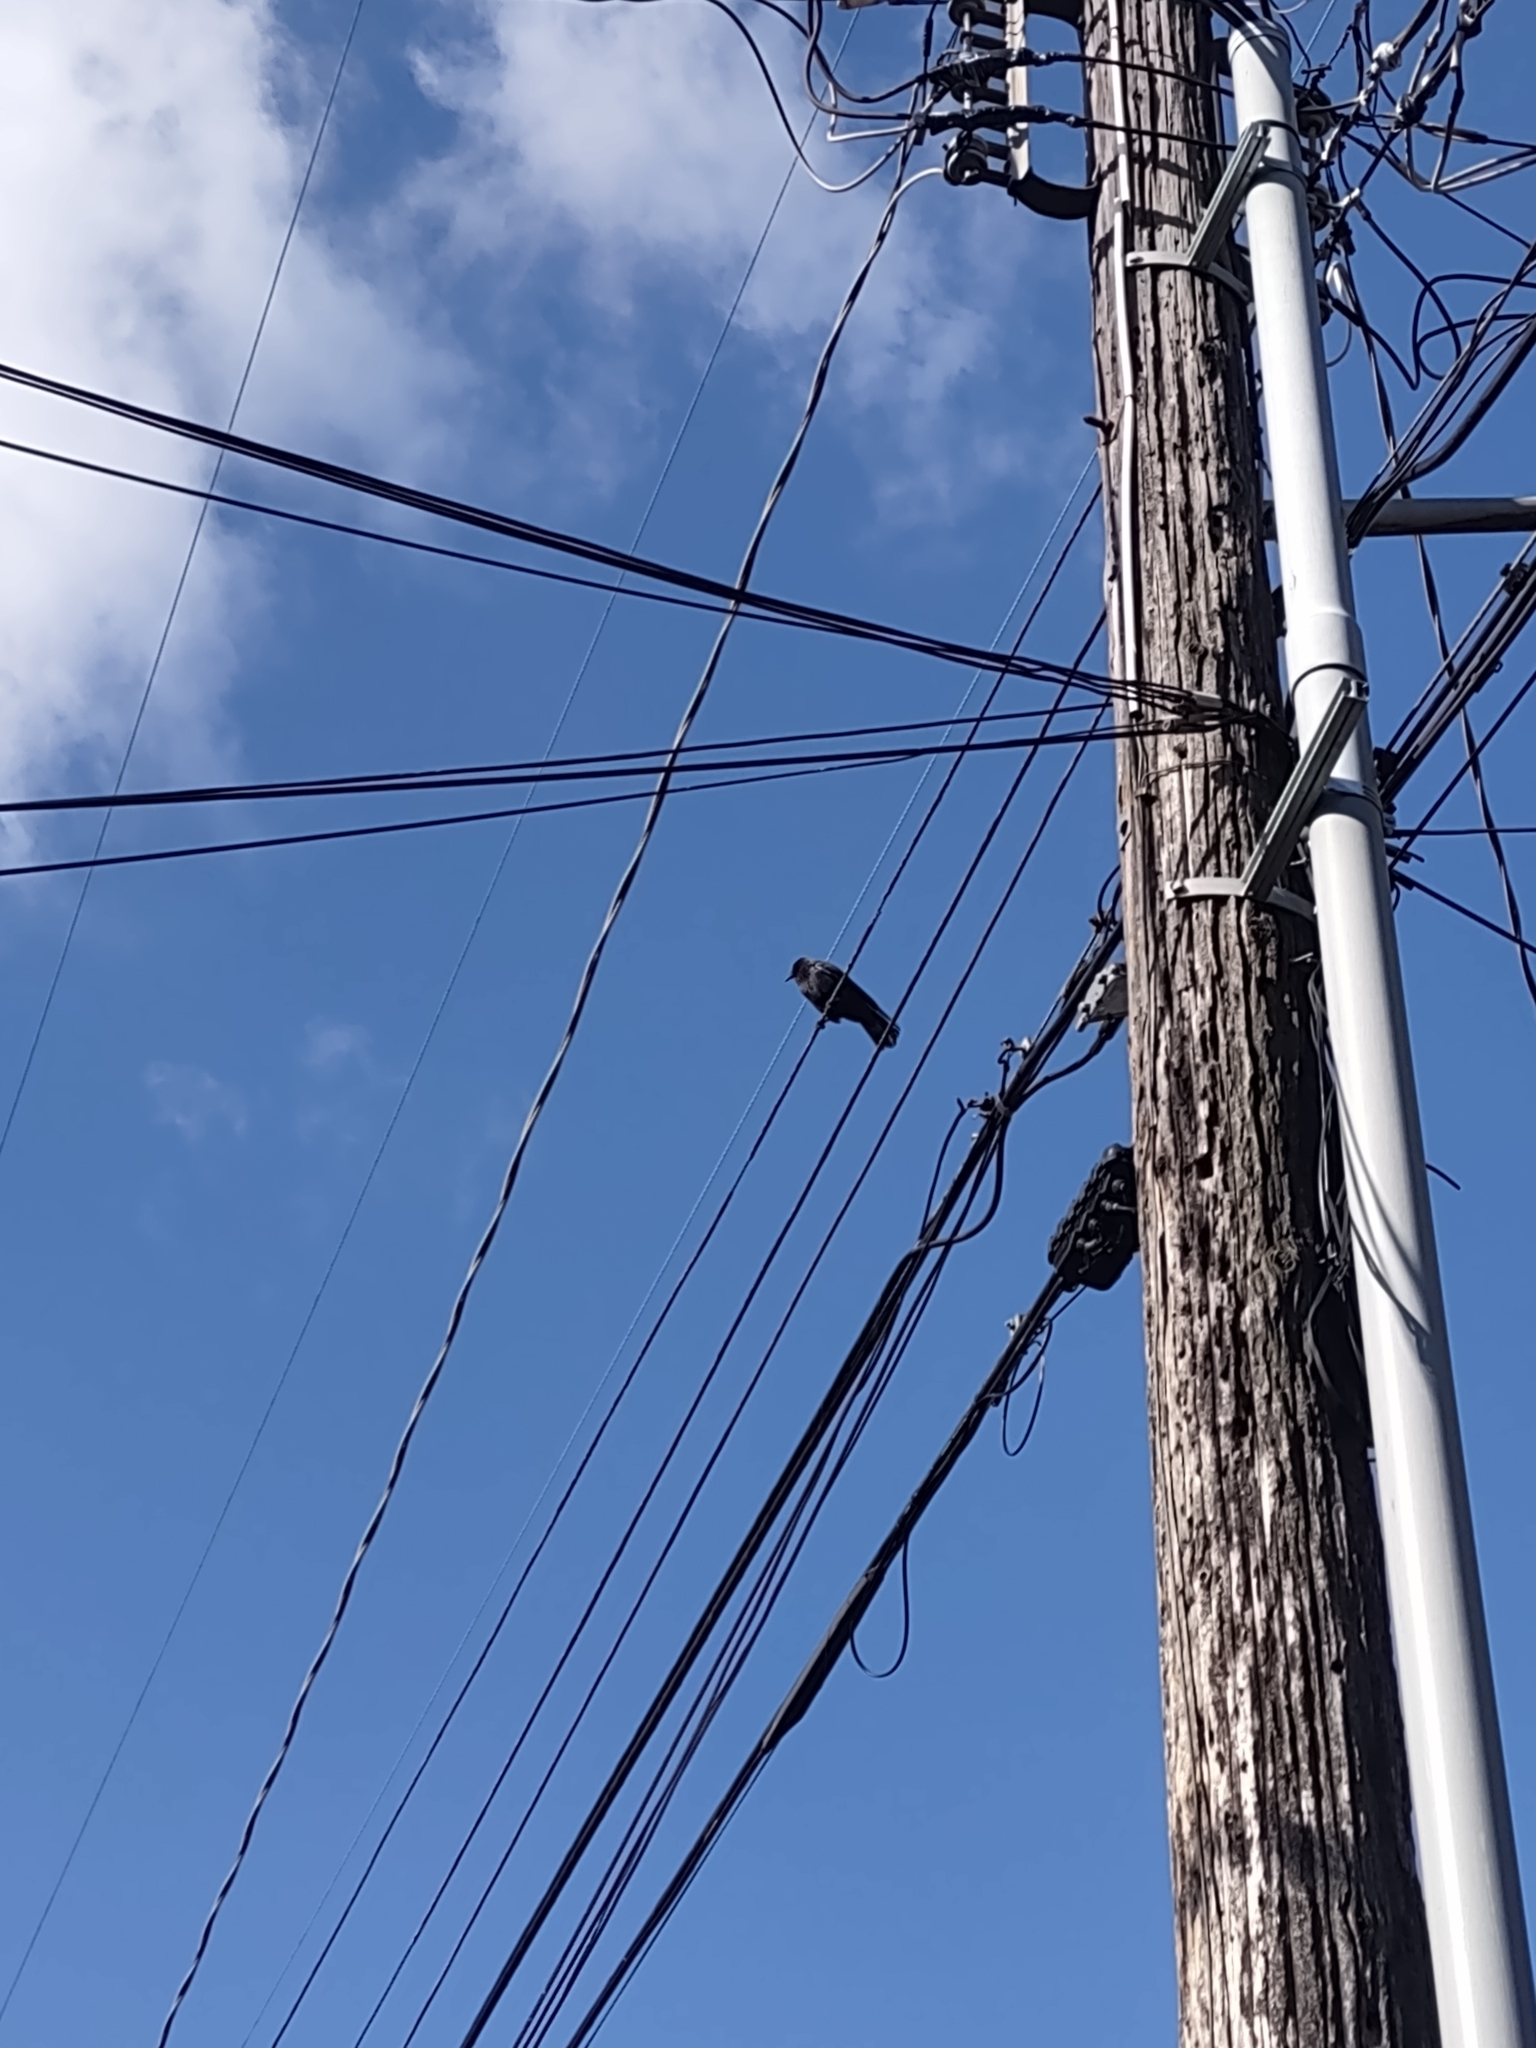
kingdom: Animalia
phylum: Chordata
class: Aves
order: Passeriformes
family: Corvidae
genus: Corvus
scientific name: Corvus brachyrhynchos
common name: American crow
